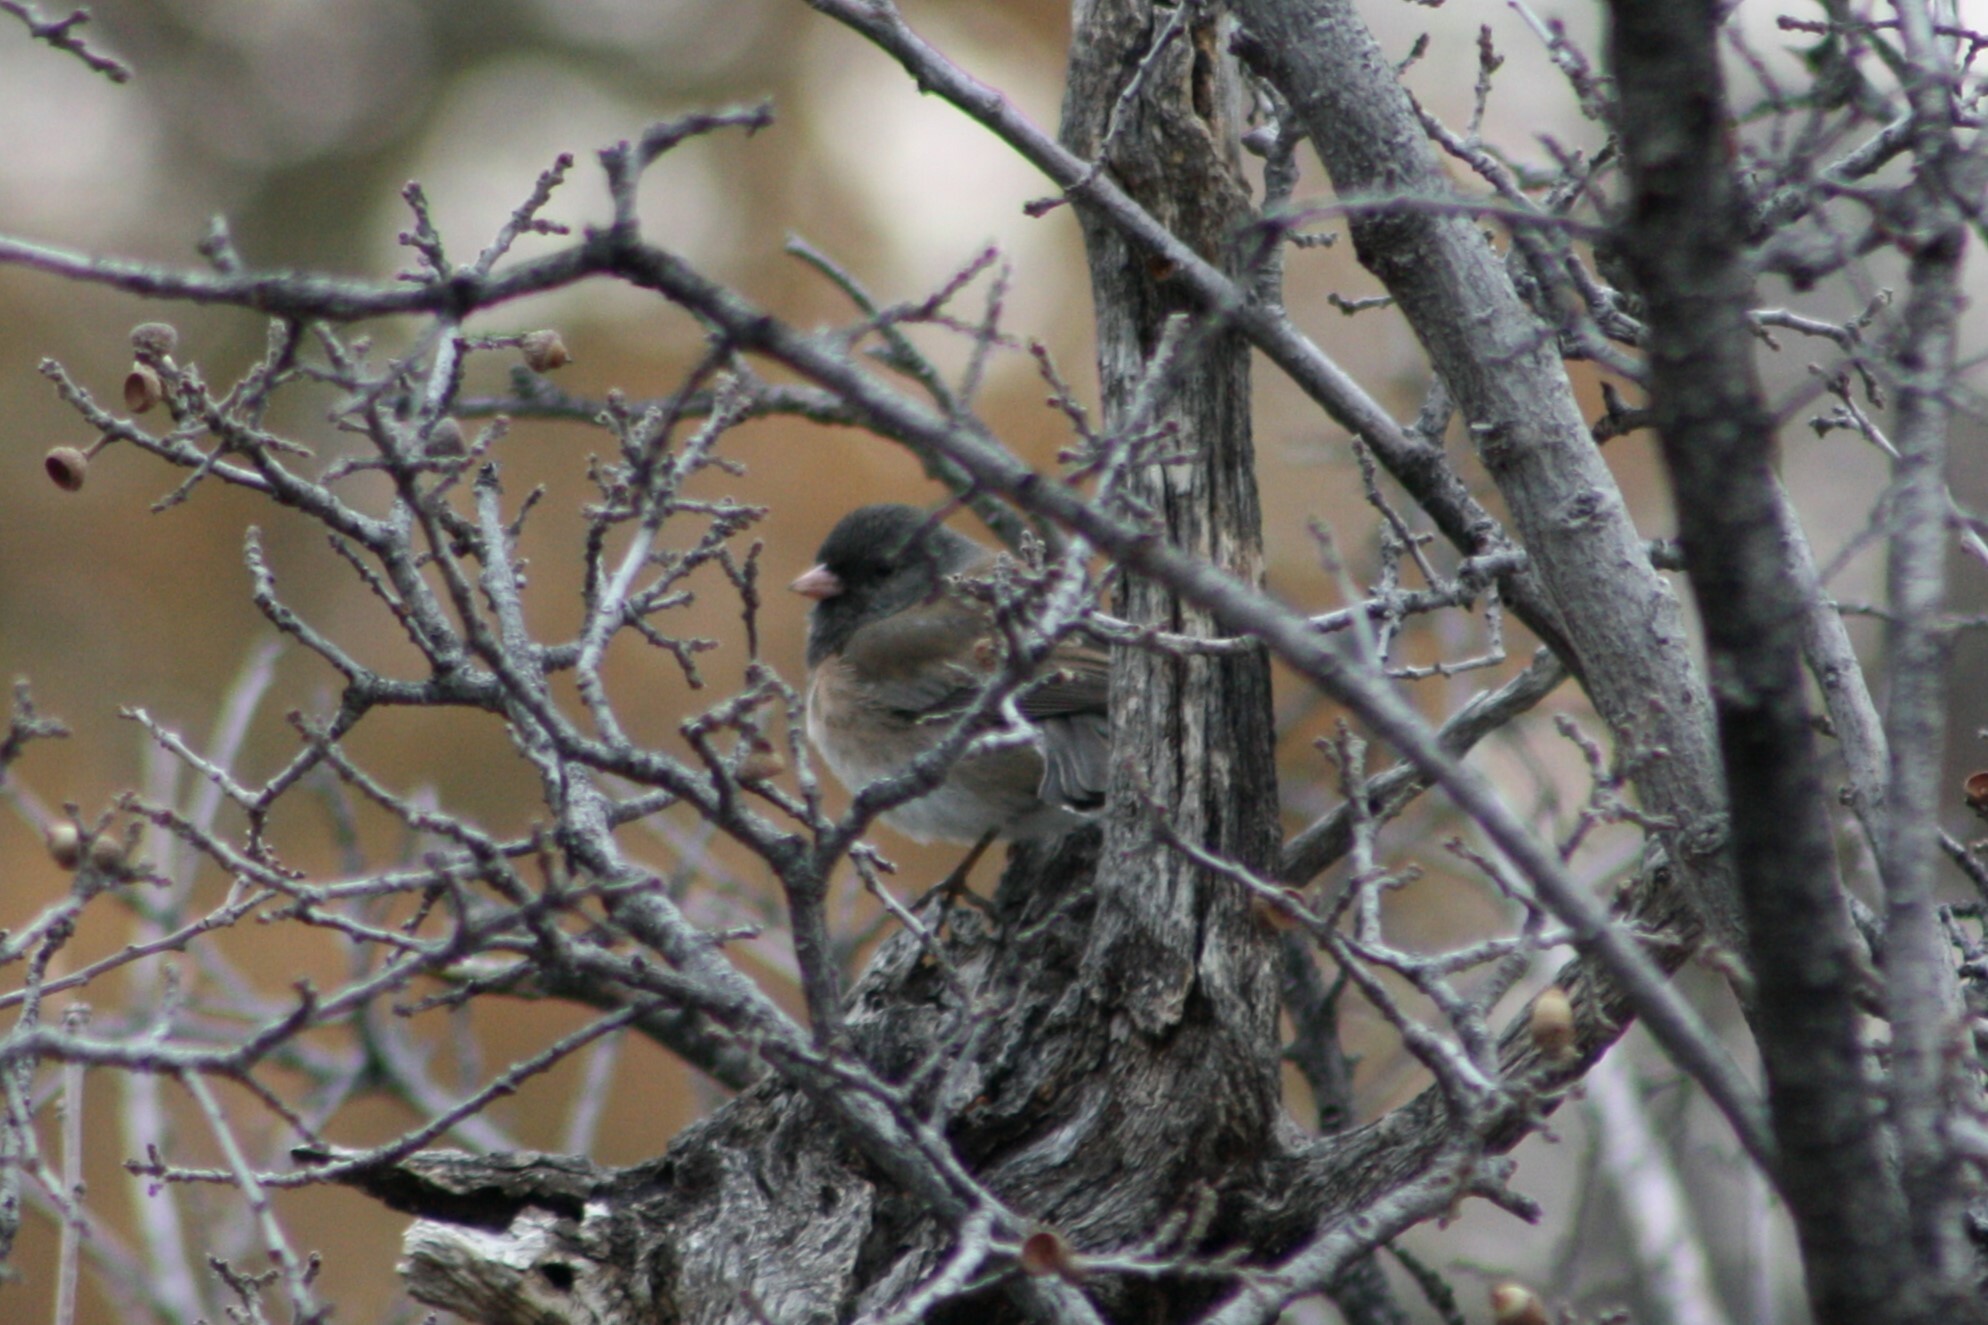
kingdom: Animalia
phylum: Chordata
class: Aves
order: Passeriformes
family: Passerellidae
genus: Junco
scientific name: Junco hyemalis
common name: Dark-eyed junco
